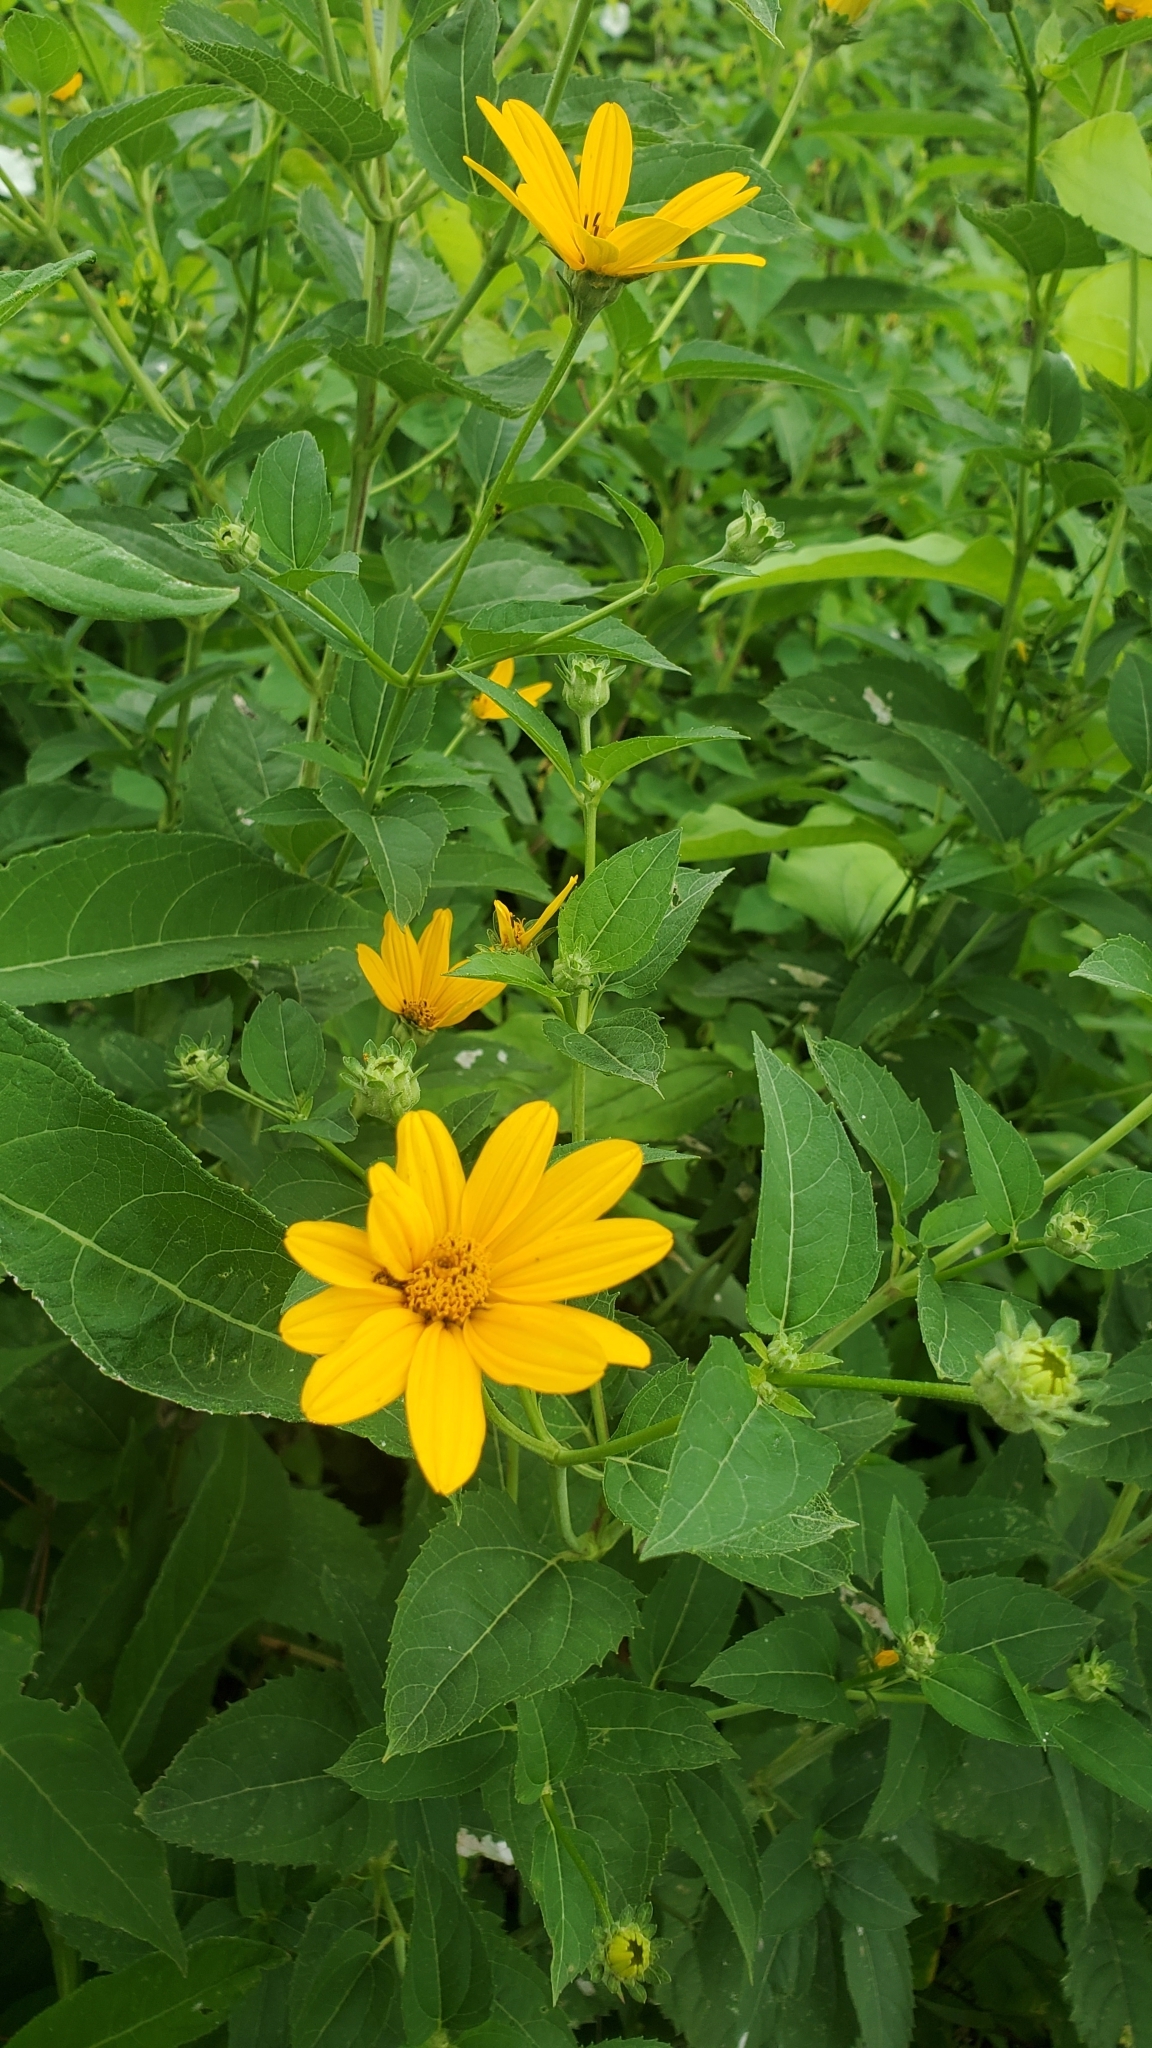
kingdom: Plantae
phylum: Tracheophyta
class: Magnoliopsida
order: Asterales
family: Asteraceae
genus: Heliopsis
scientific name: Heliopsis helianthoides
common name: False sunflower
